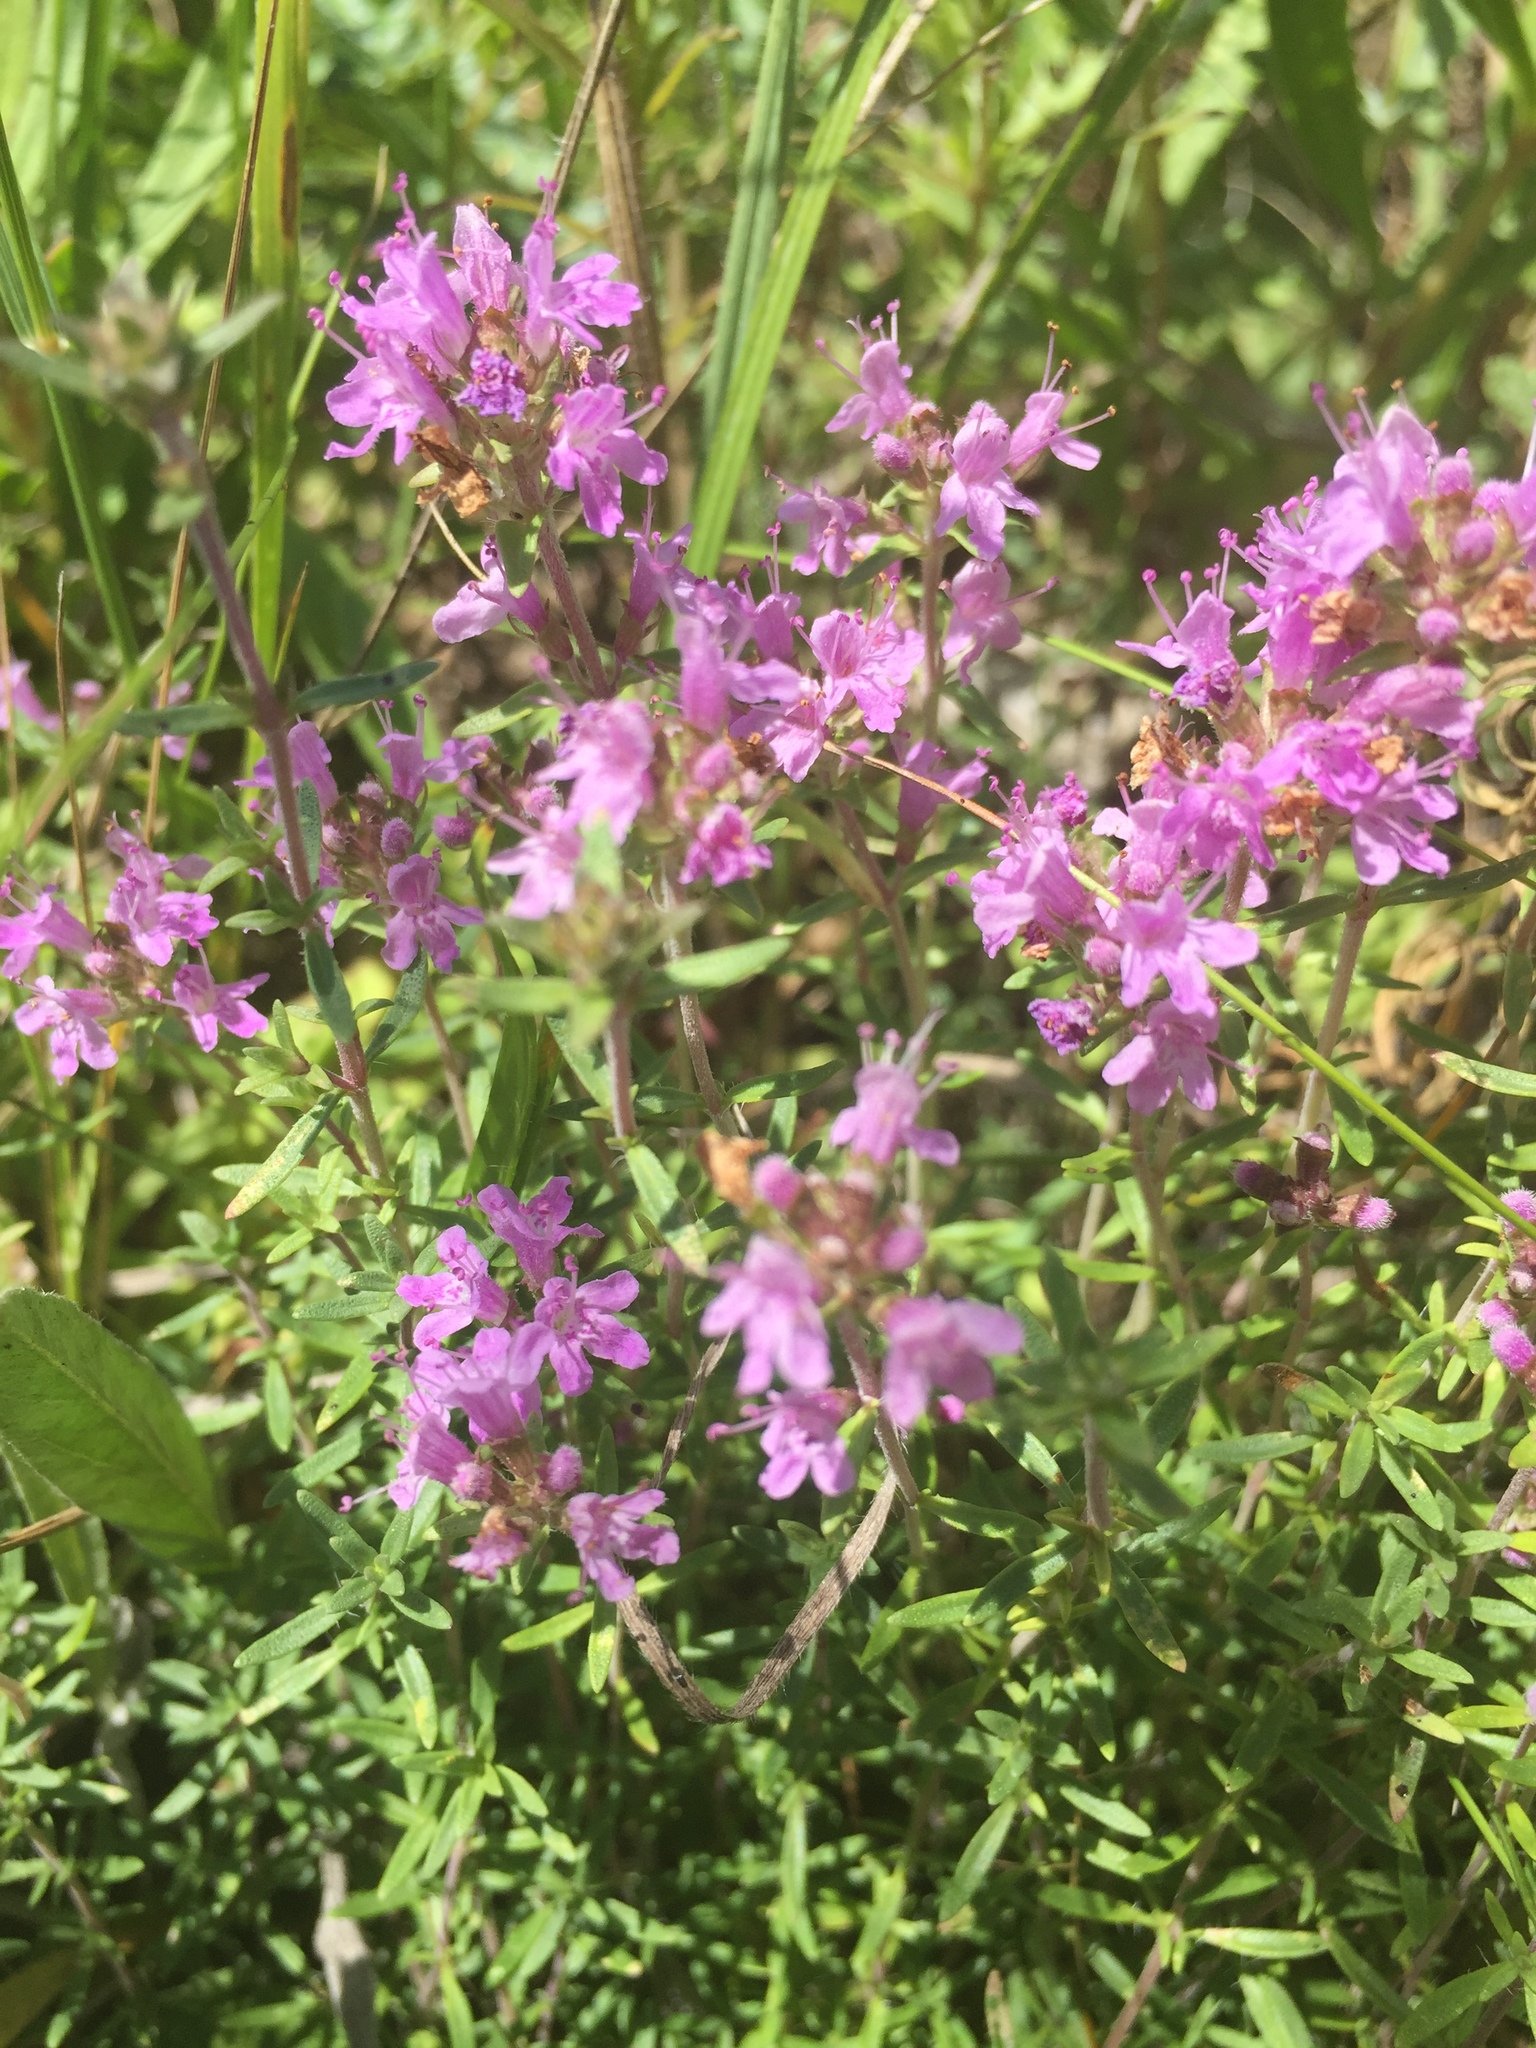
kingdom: Plantae
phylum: Tracheophyta
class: Magnoliopsida
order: Lamiales
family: Lamiaceae
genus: Thymus
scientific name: Thymus calcareus
